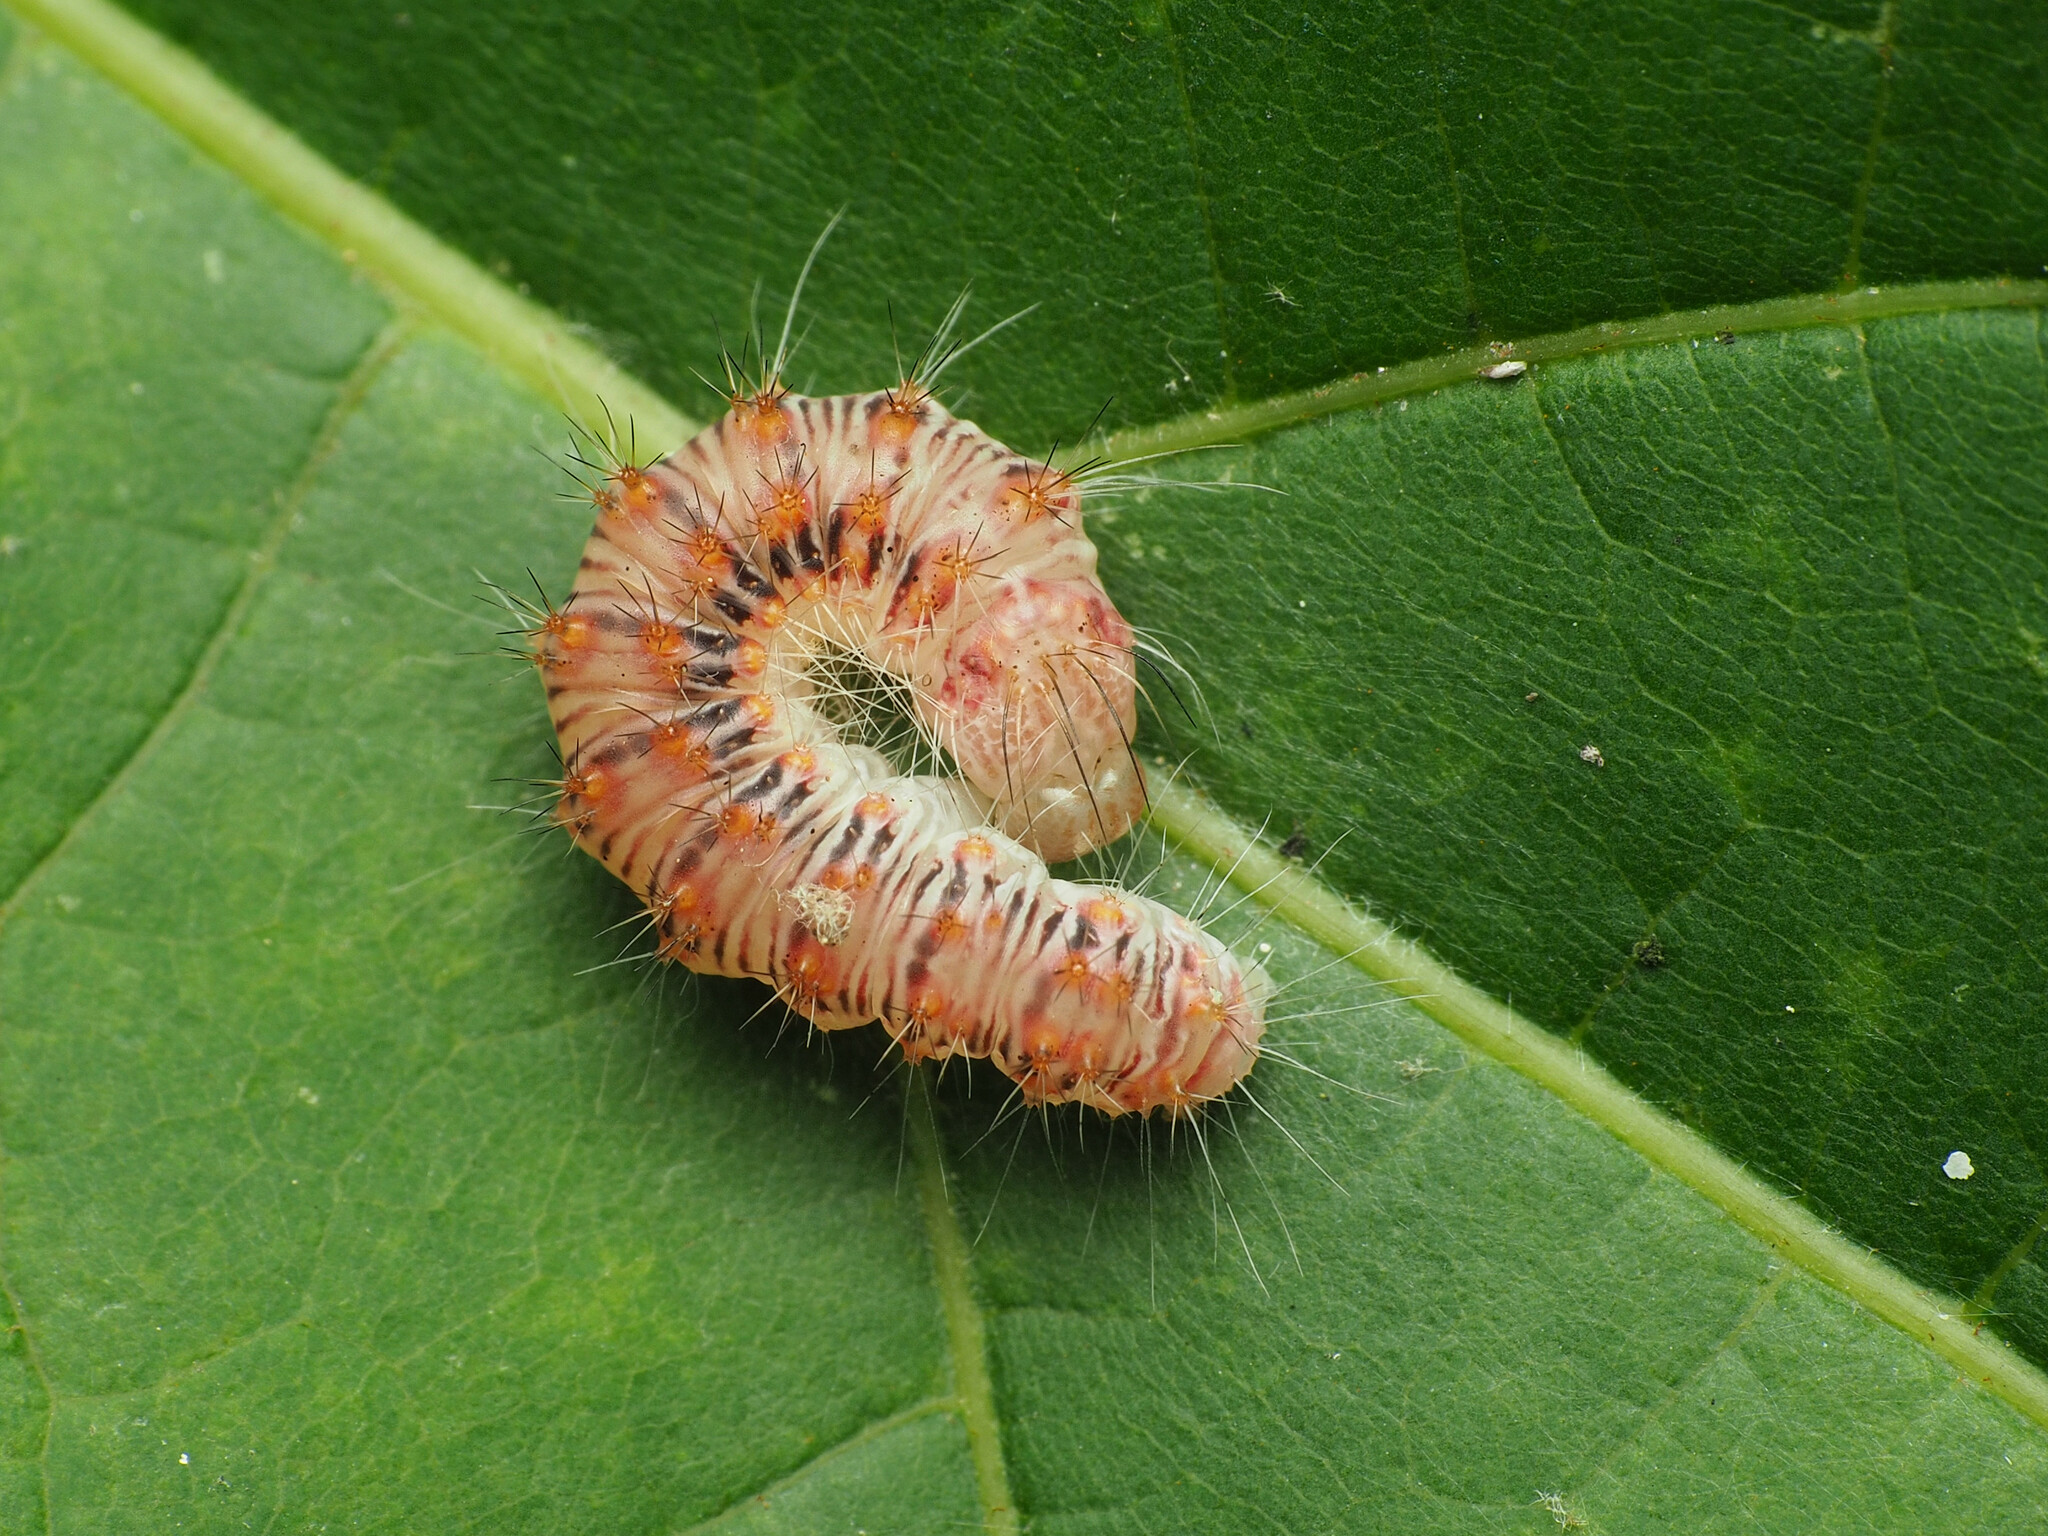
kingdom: Animalia
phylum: Arthropoda
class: Insecta
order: Lepidoptera
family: Noctuidae
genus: Acronicta
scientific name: Acronicta retardata
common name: Maple dagger
